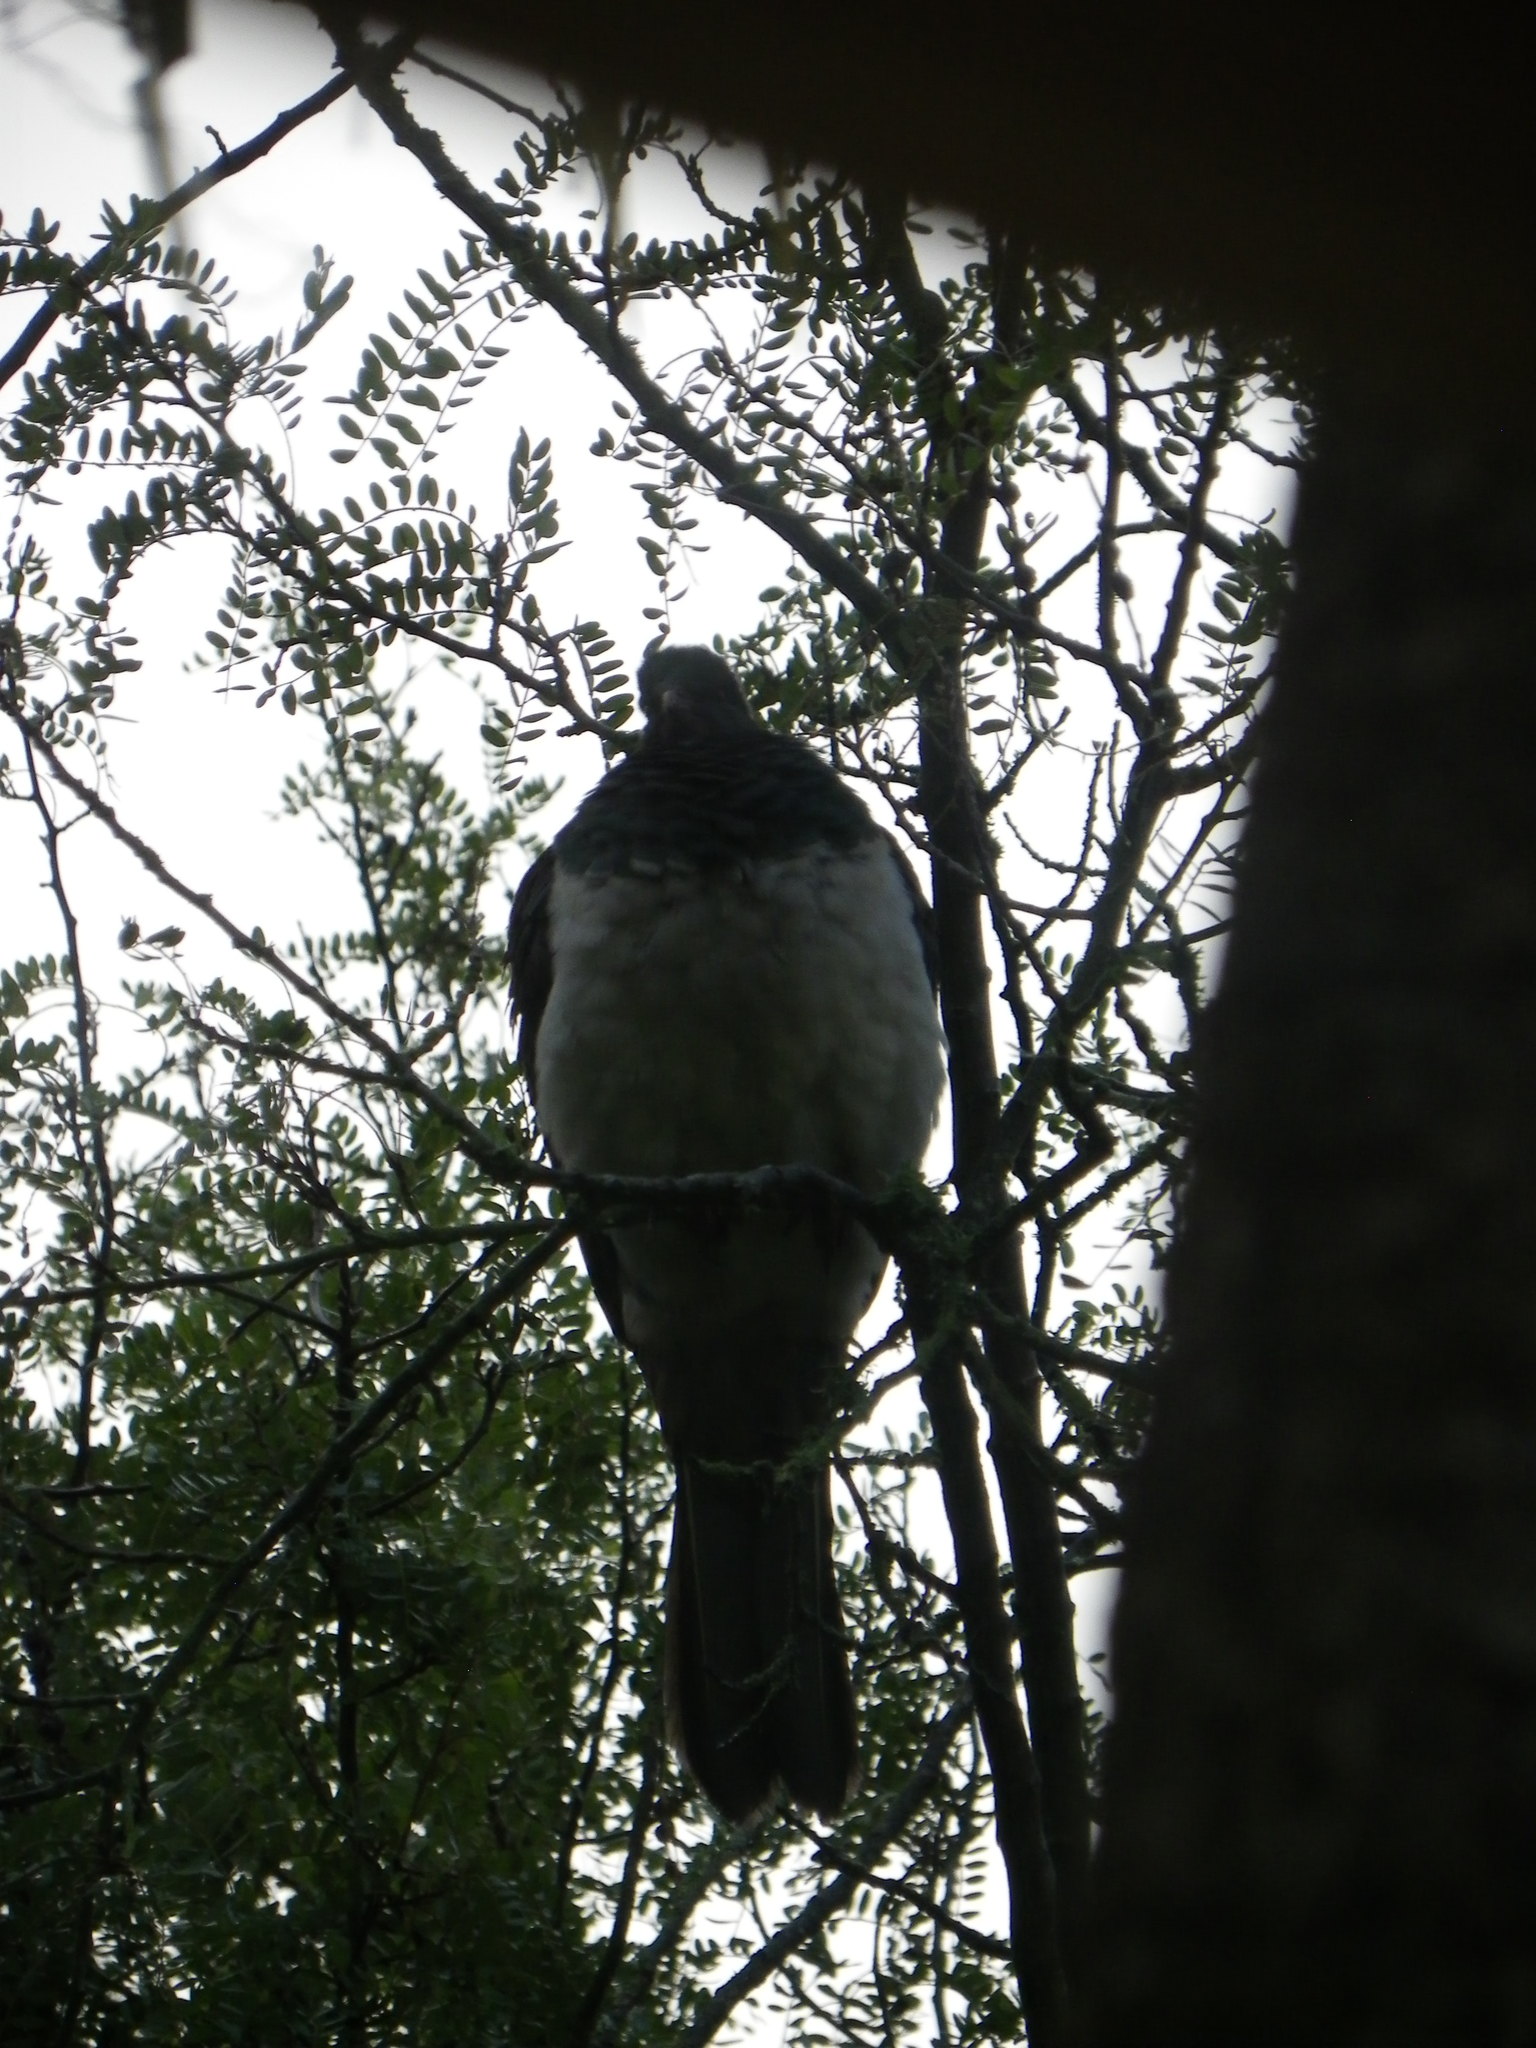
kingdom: Animalia
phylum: Chordata
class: Aves
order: Columbiformes
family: Columbidae
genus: Hemiphaga
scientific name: Hemiphaga novaeseelandiae
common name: New zealand pigeon
